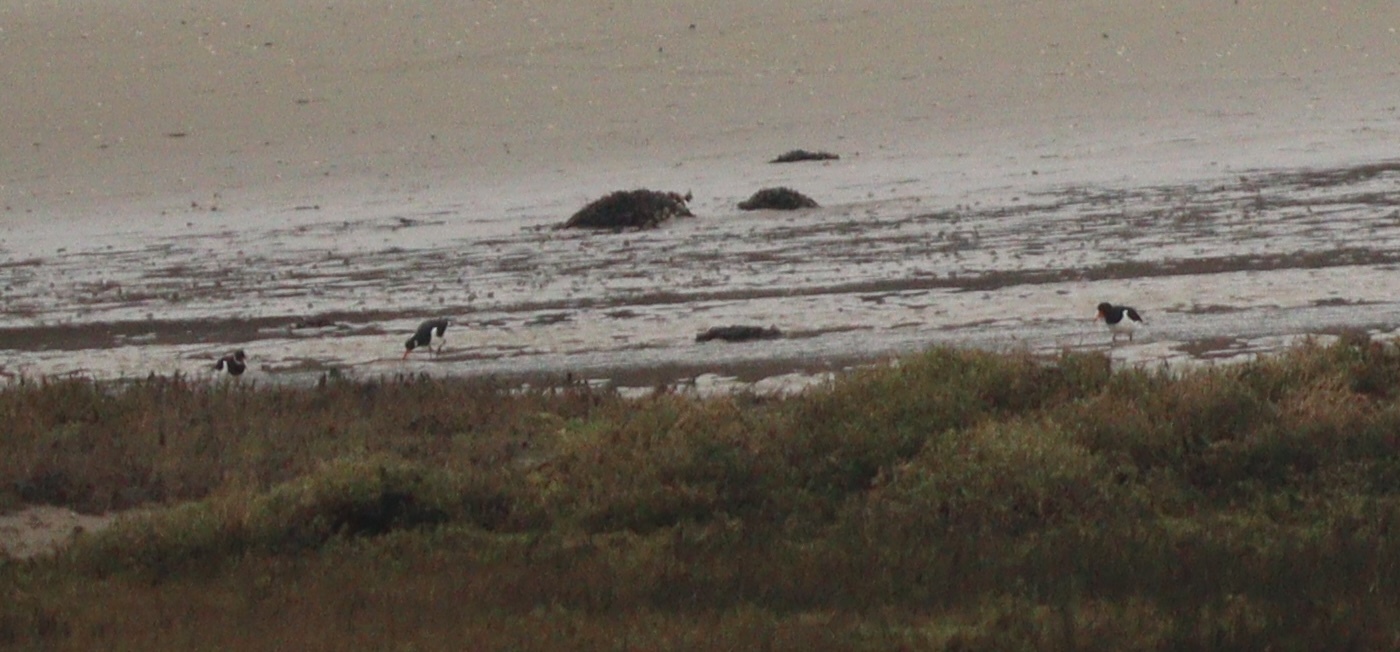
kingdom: Animalia
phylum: Chordata
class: Aves
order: Charadriiformes
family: Haematopodidae
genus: Haematopus
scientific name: Haematopus ostralegus
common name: Eurasian oystercatcher
